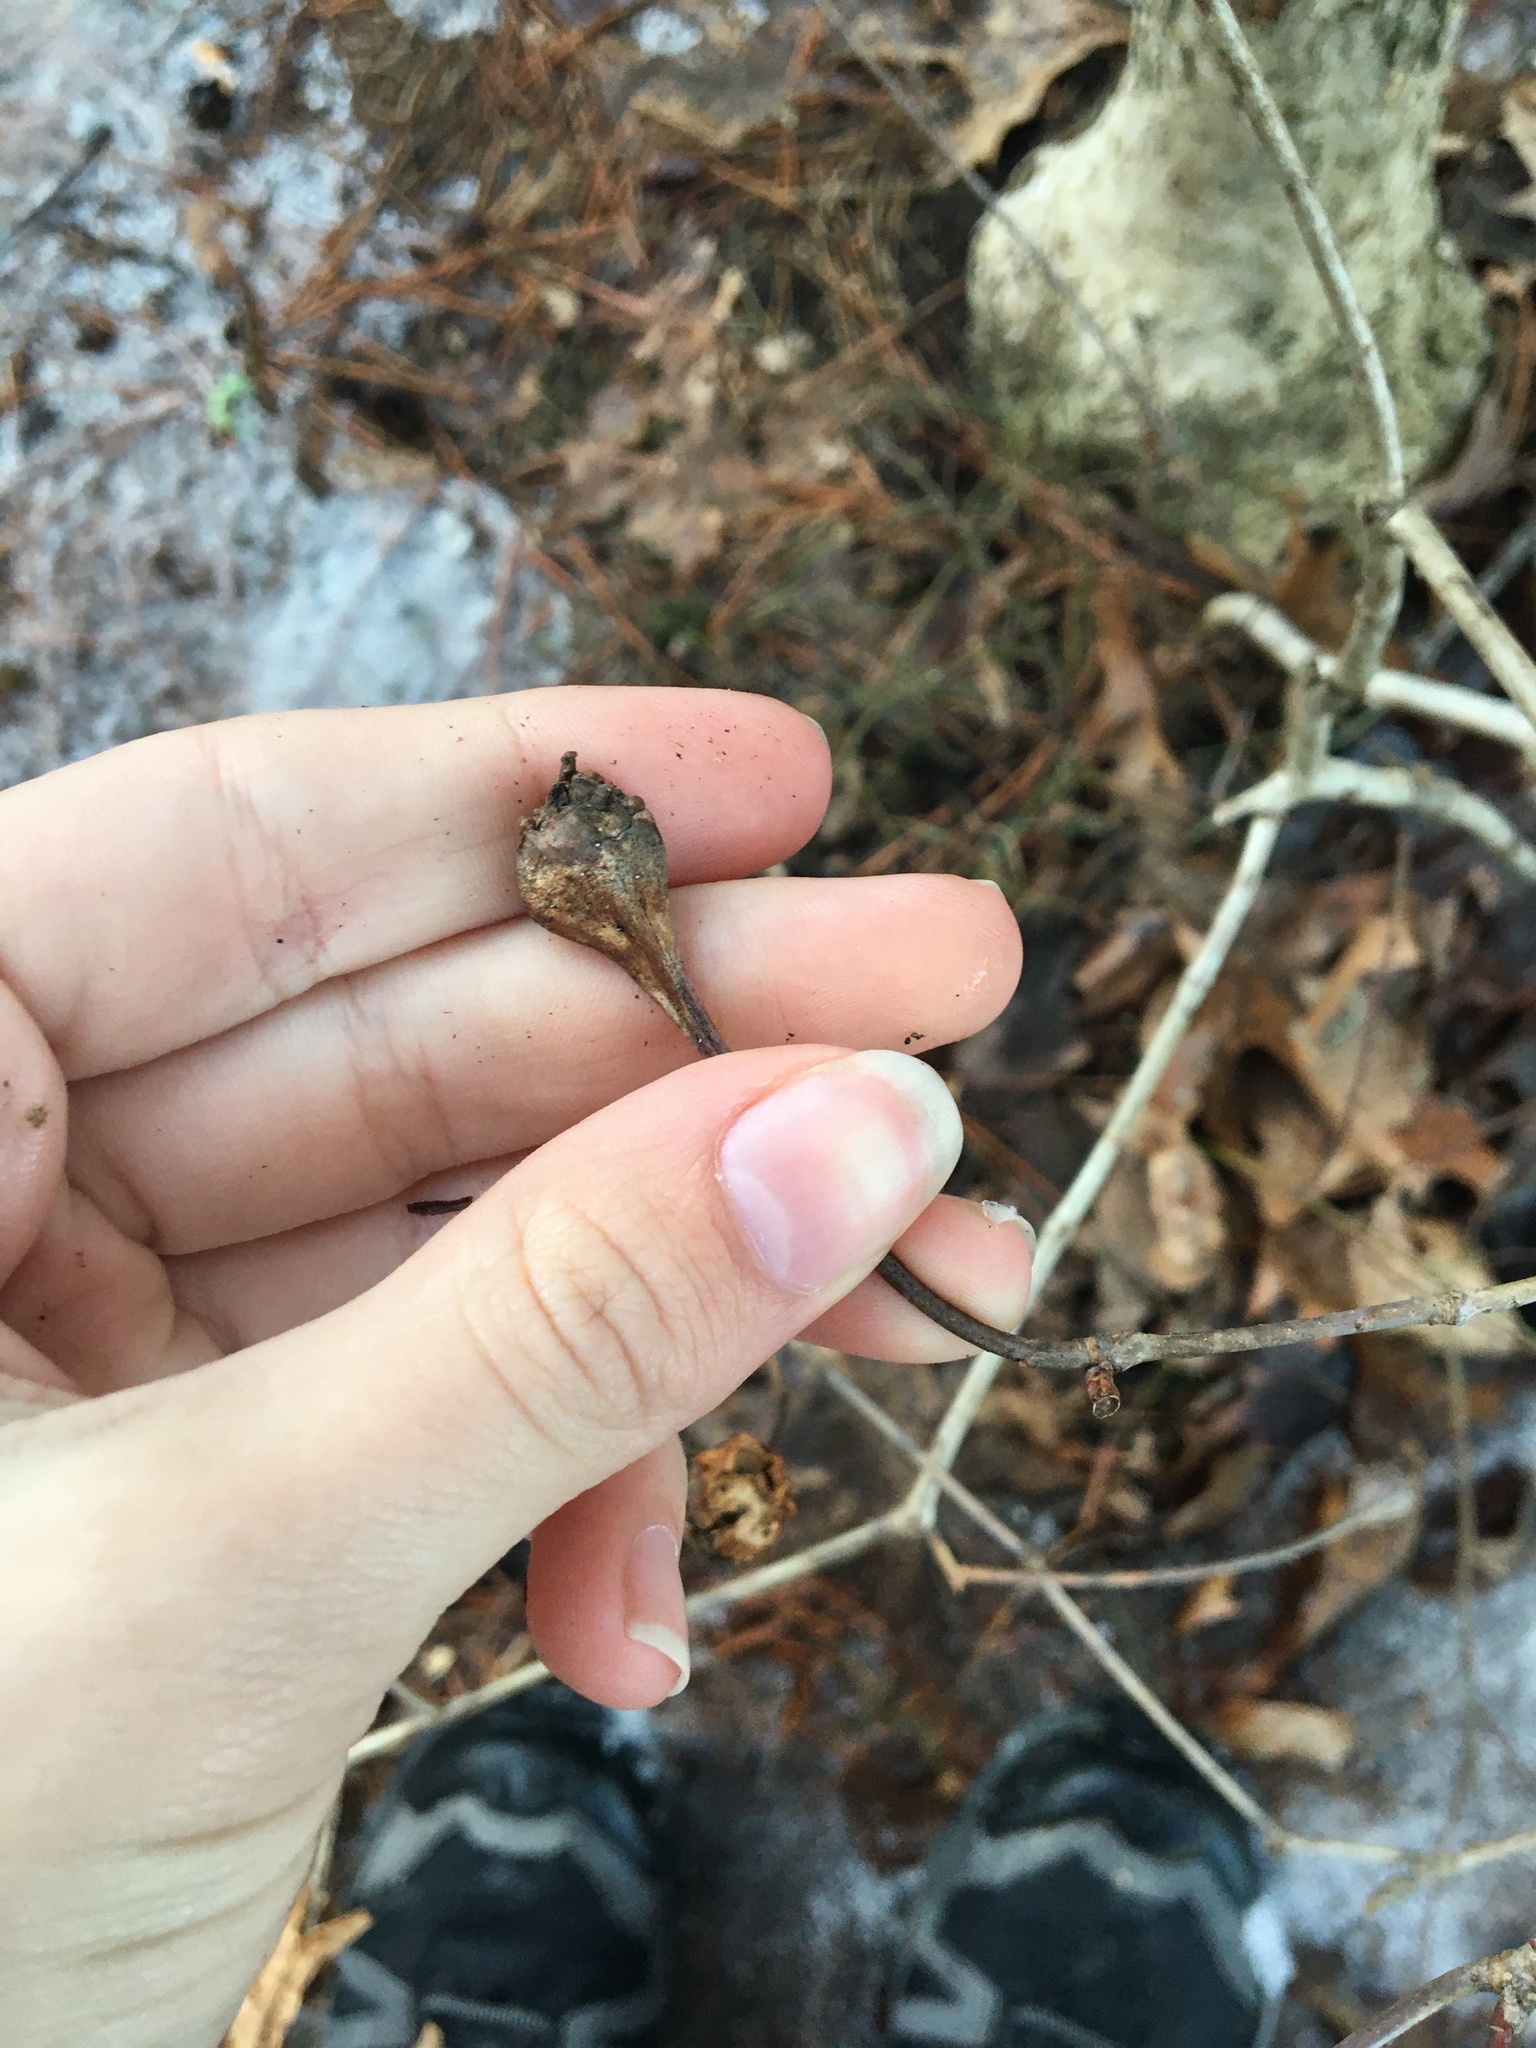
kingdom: Animalia
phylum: Arthropoda
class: Insecta
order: Hymenoptera
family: Cynipidae
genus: Callirhytis
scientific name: Callirhytis clavula
